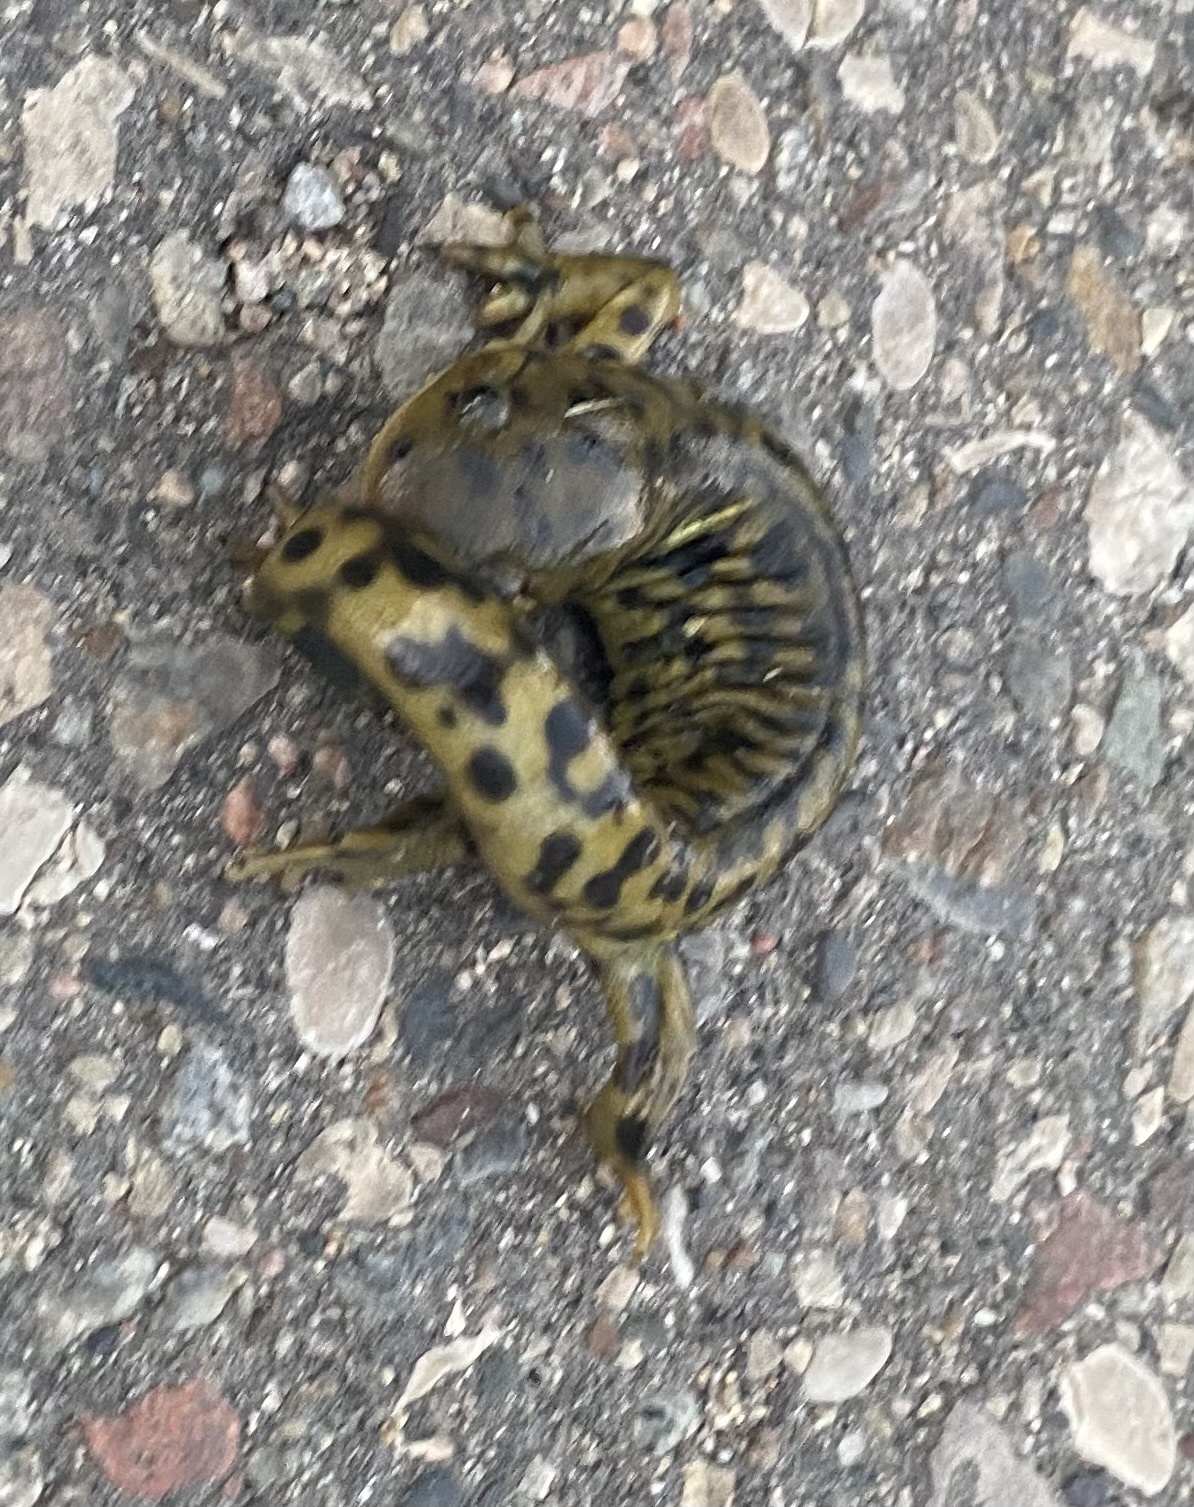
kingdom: Animalia
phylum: Chordata
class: Amphibia
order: Caudata
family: Ambystomatidae
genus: Ambystoma
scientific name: Ambystoma mavortium
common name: Western tiger salamander
